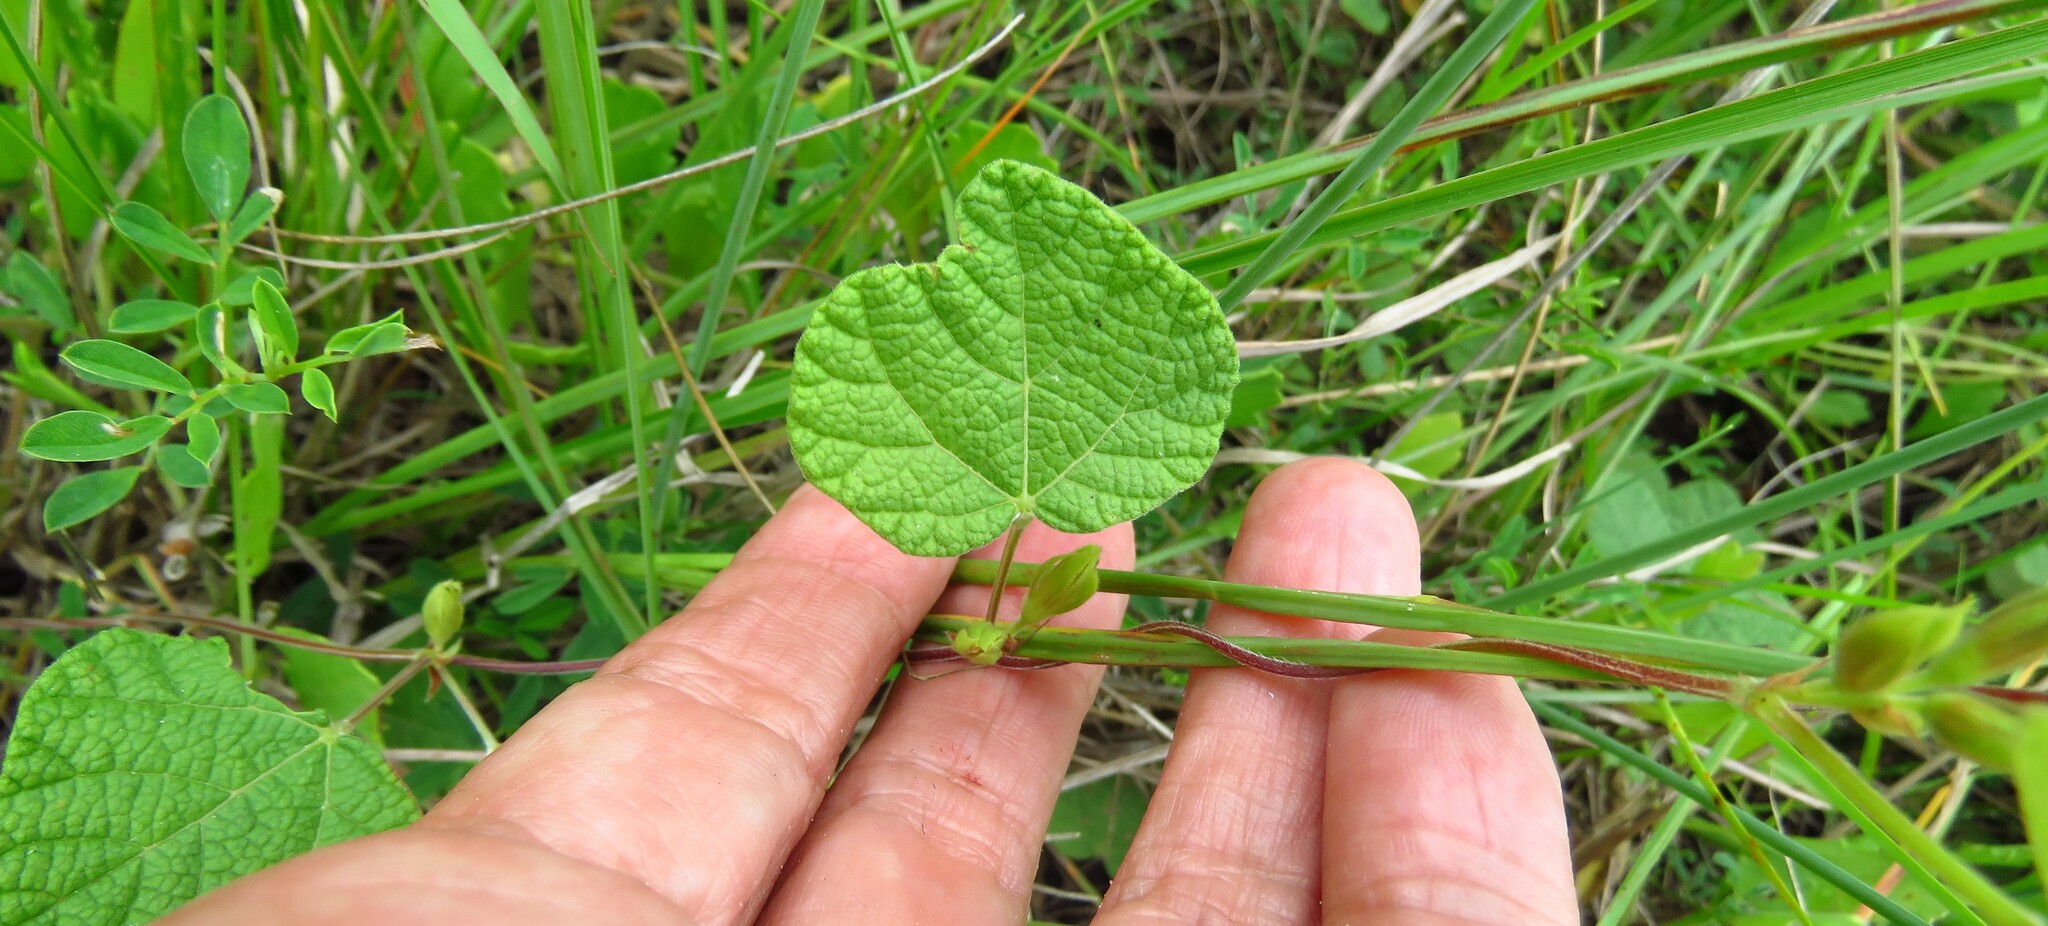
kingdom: Plantae
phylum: Tracheophyta
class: Magnoliopsida
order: Fabales
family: Fabaceae
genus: Rhynchosia
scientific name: Rhynchosia americana
